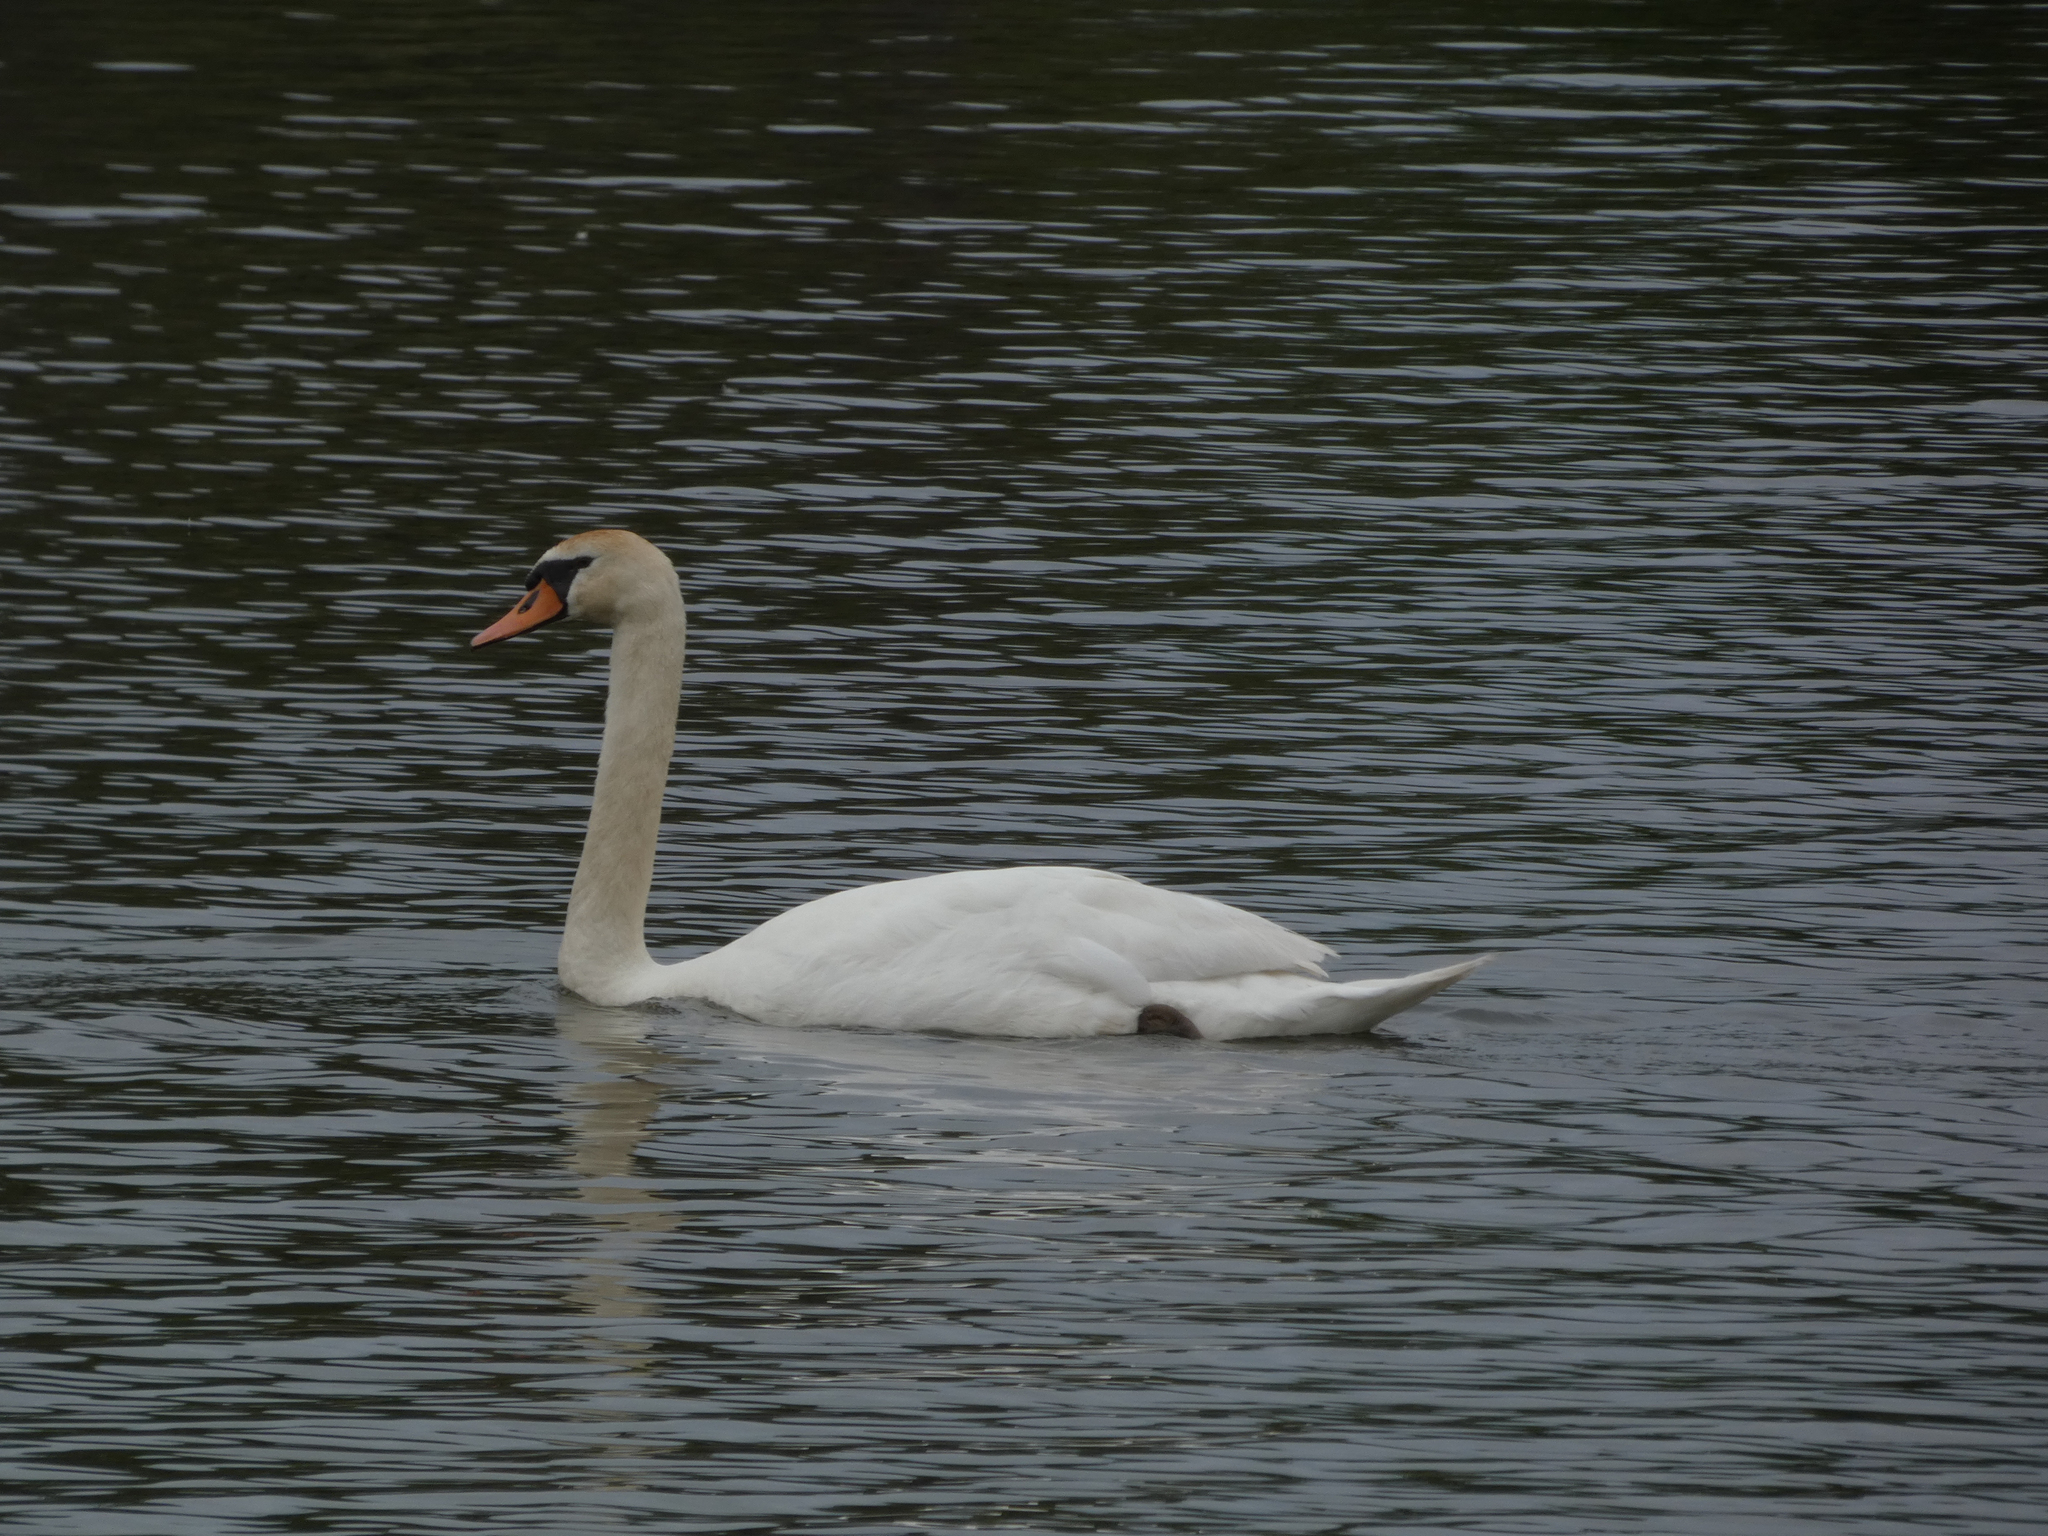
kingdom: Animalia
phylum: Chordata
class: Aves
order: Anseriformes
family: Anatidae
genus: Cygnus
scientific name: Cygnus olor
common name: Mute swan
